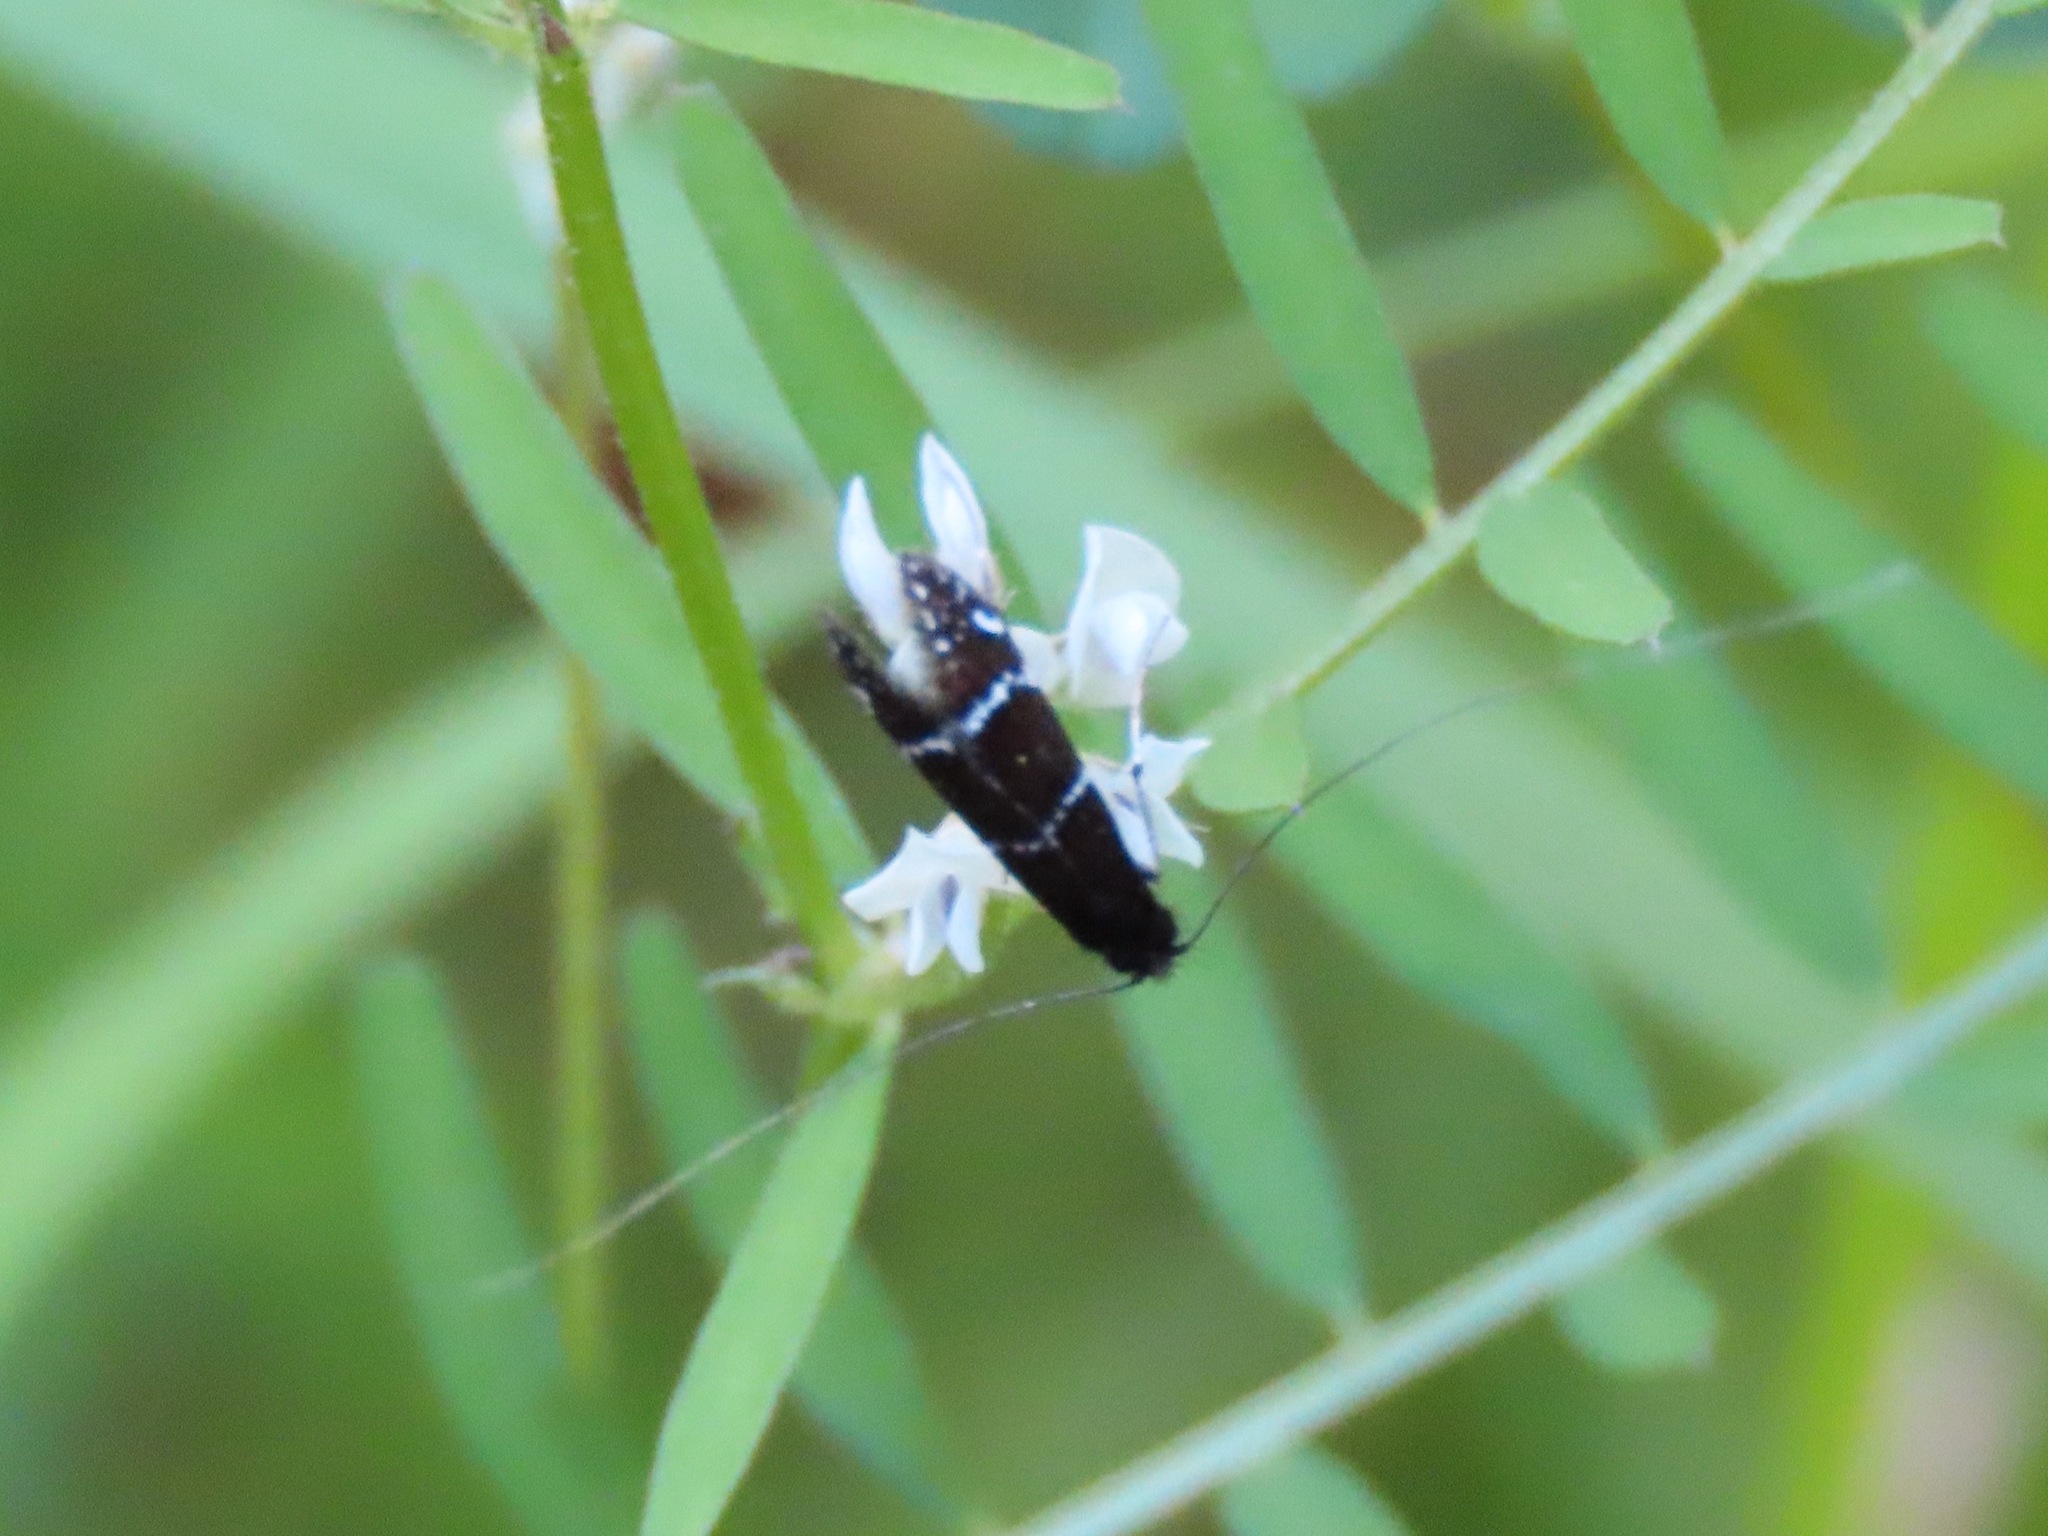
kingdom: Animalia
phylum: Arthropoda
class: Insecta
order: Lepidoptera
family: Adelidae
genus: Adela
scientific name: Adela septentrionella
